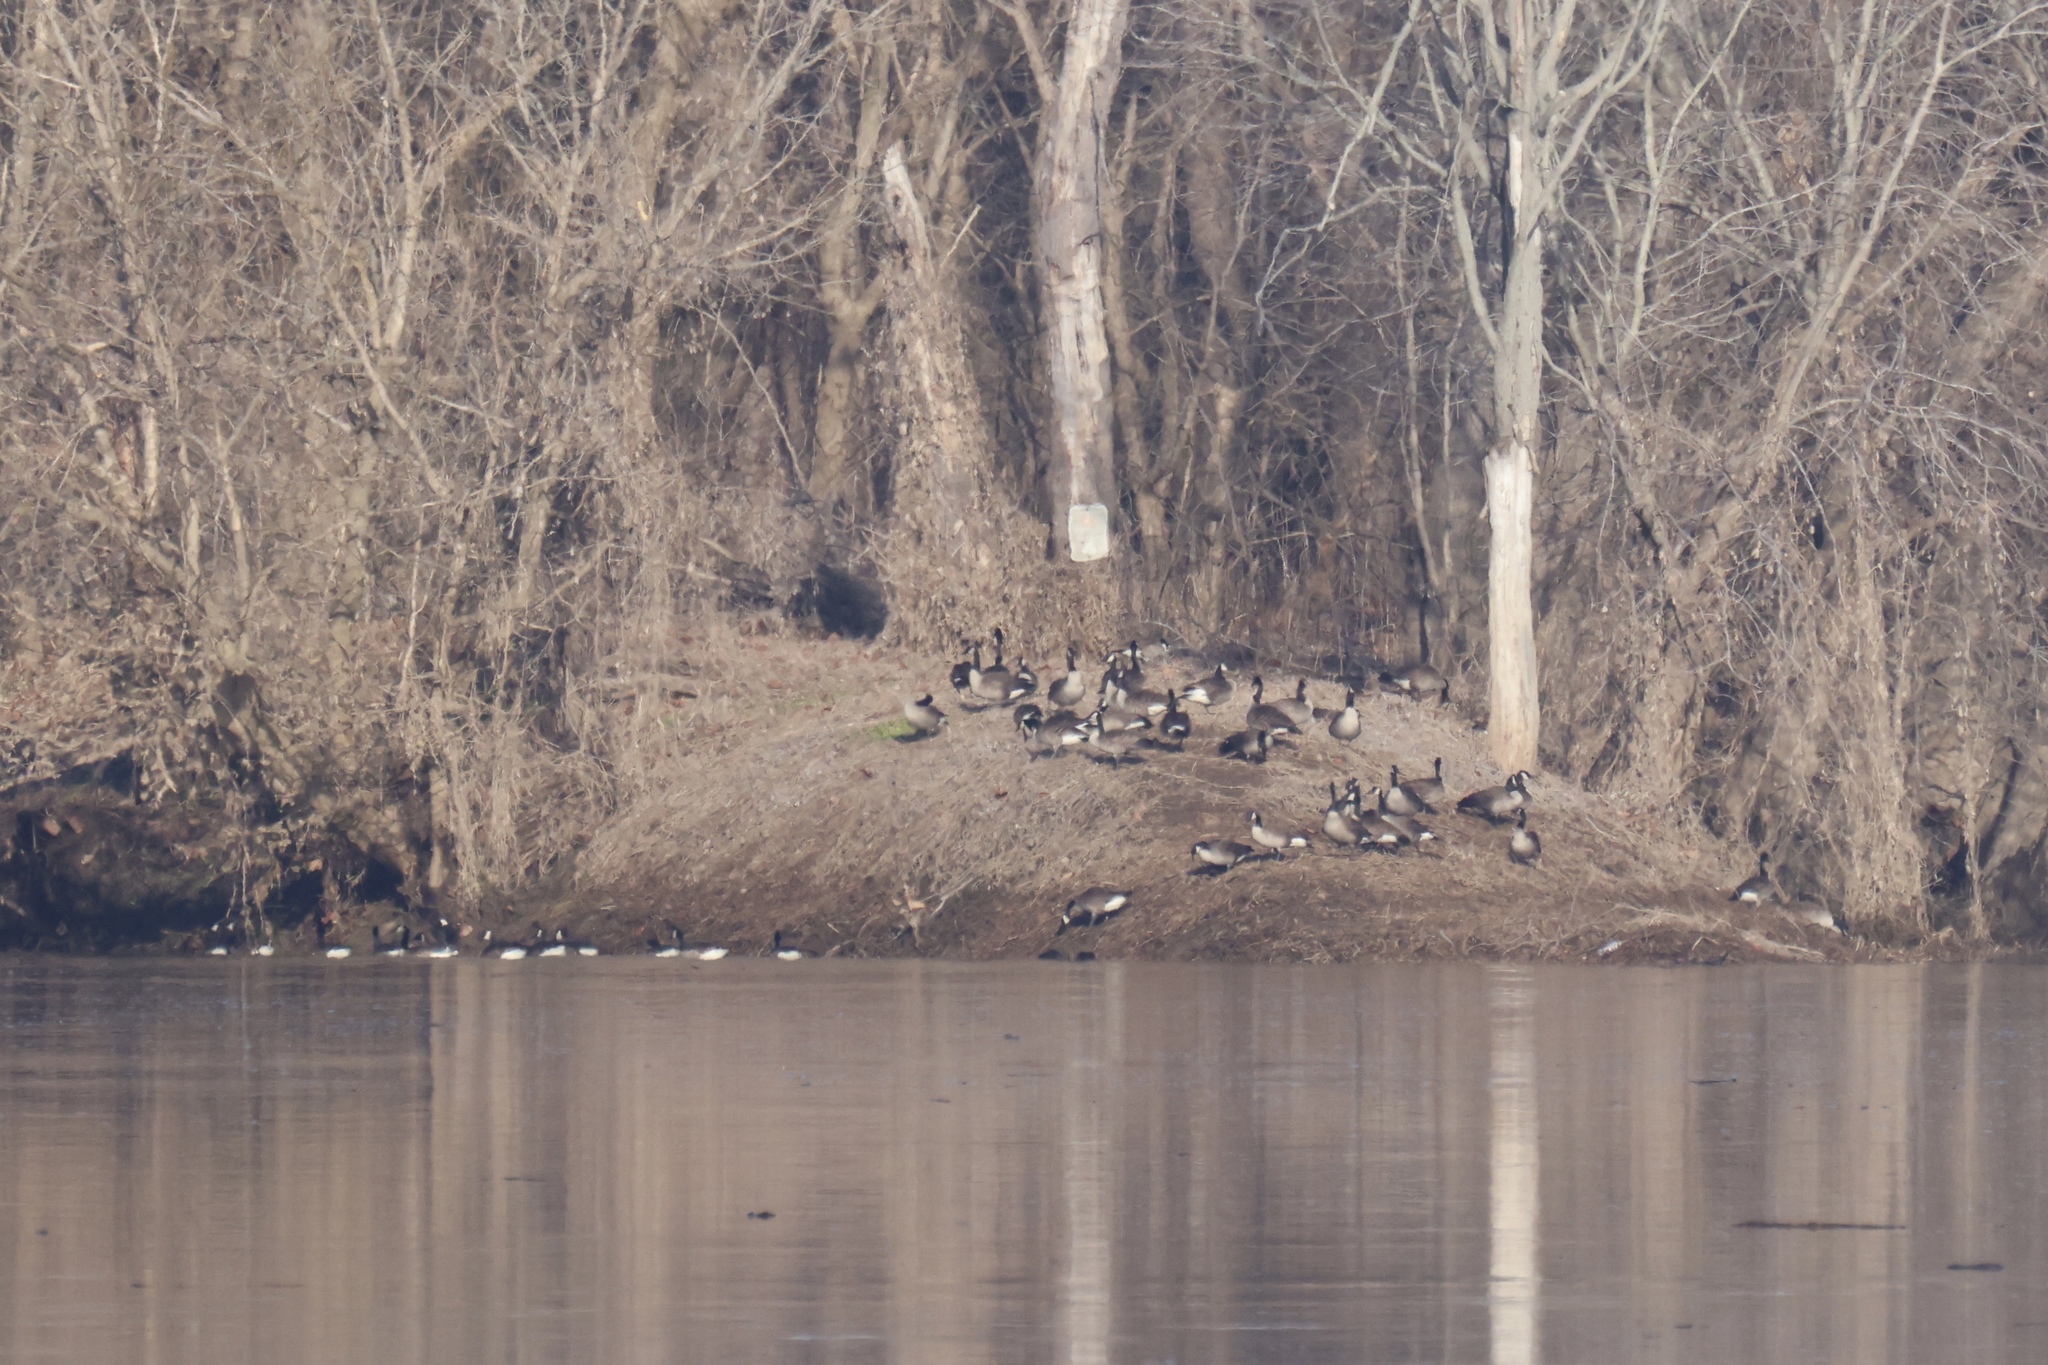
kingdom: Animalia
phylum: Chordata
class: Aves
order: Anseriformes
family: Anatidae
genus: Branta
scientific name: Branta canadensis
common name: Canada goose
